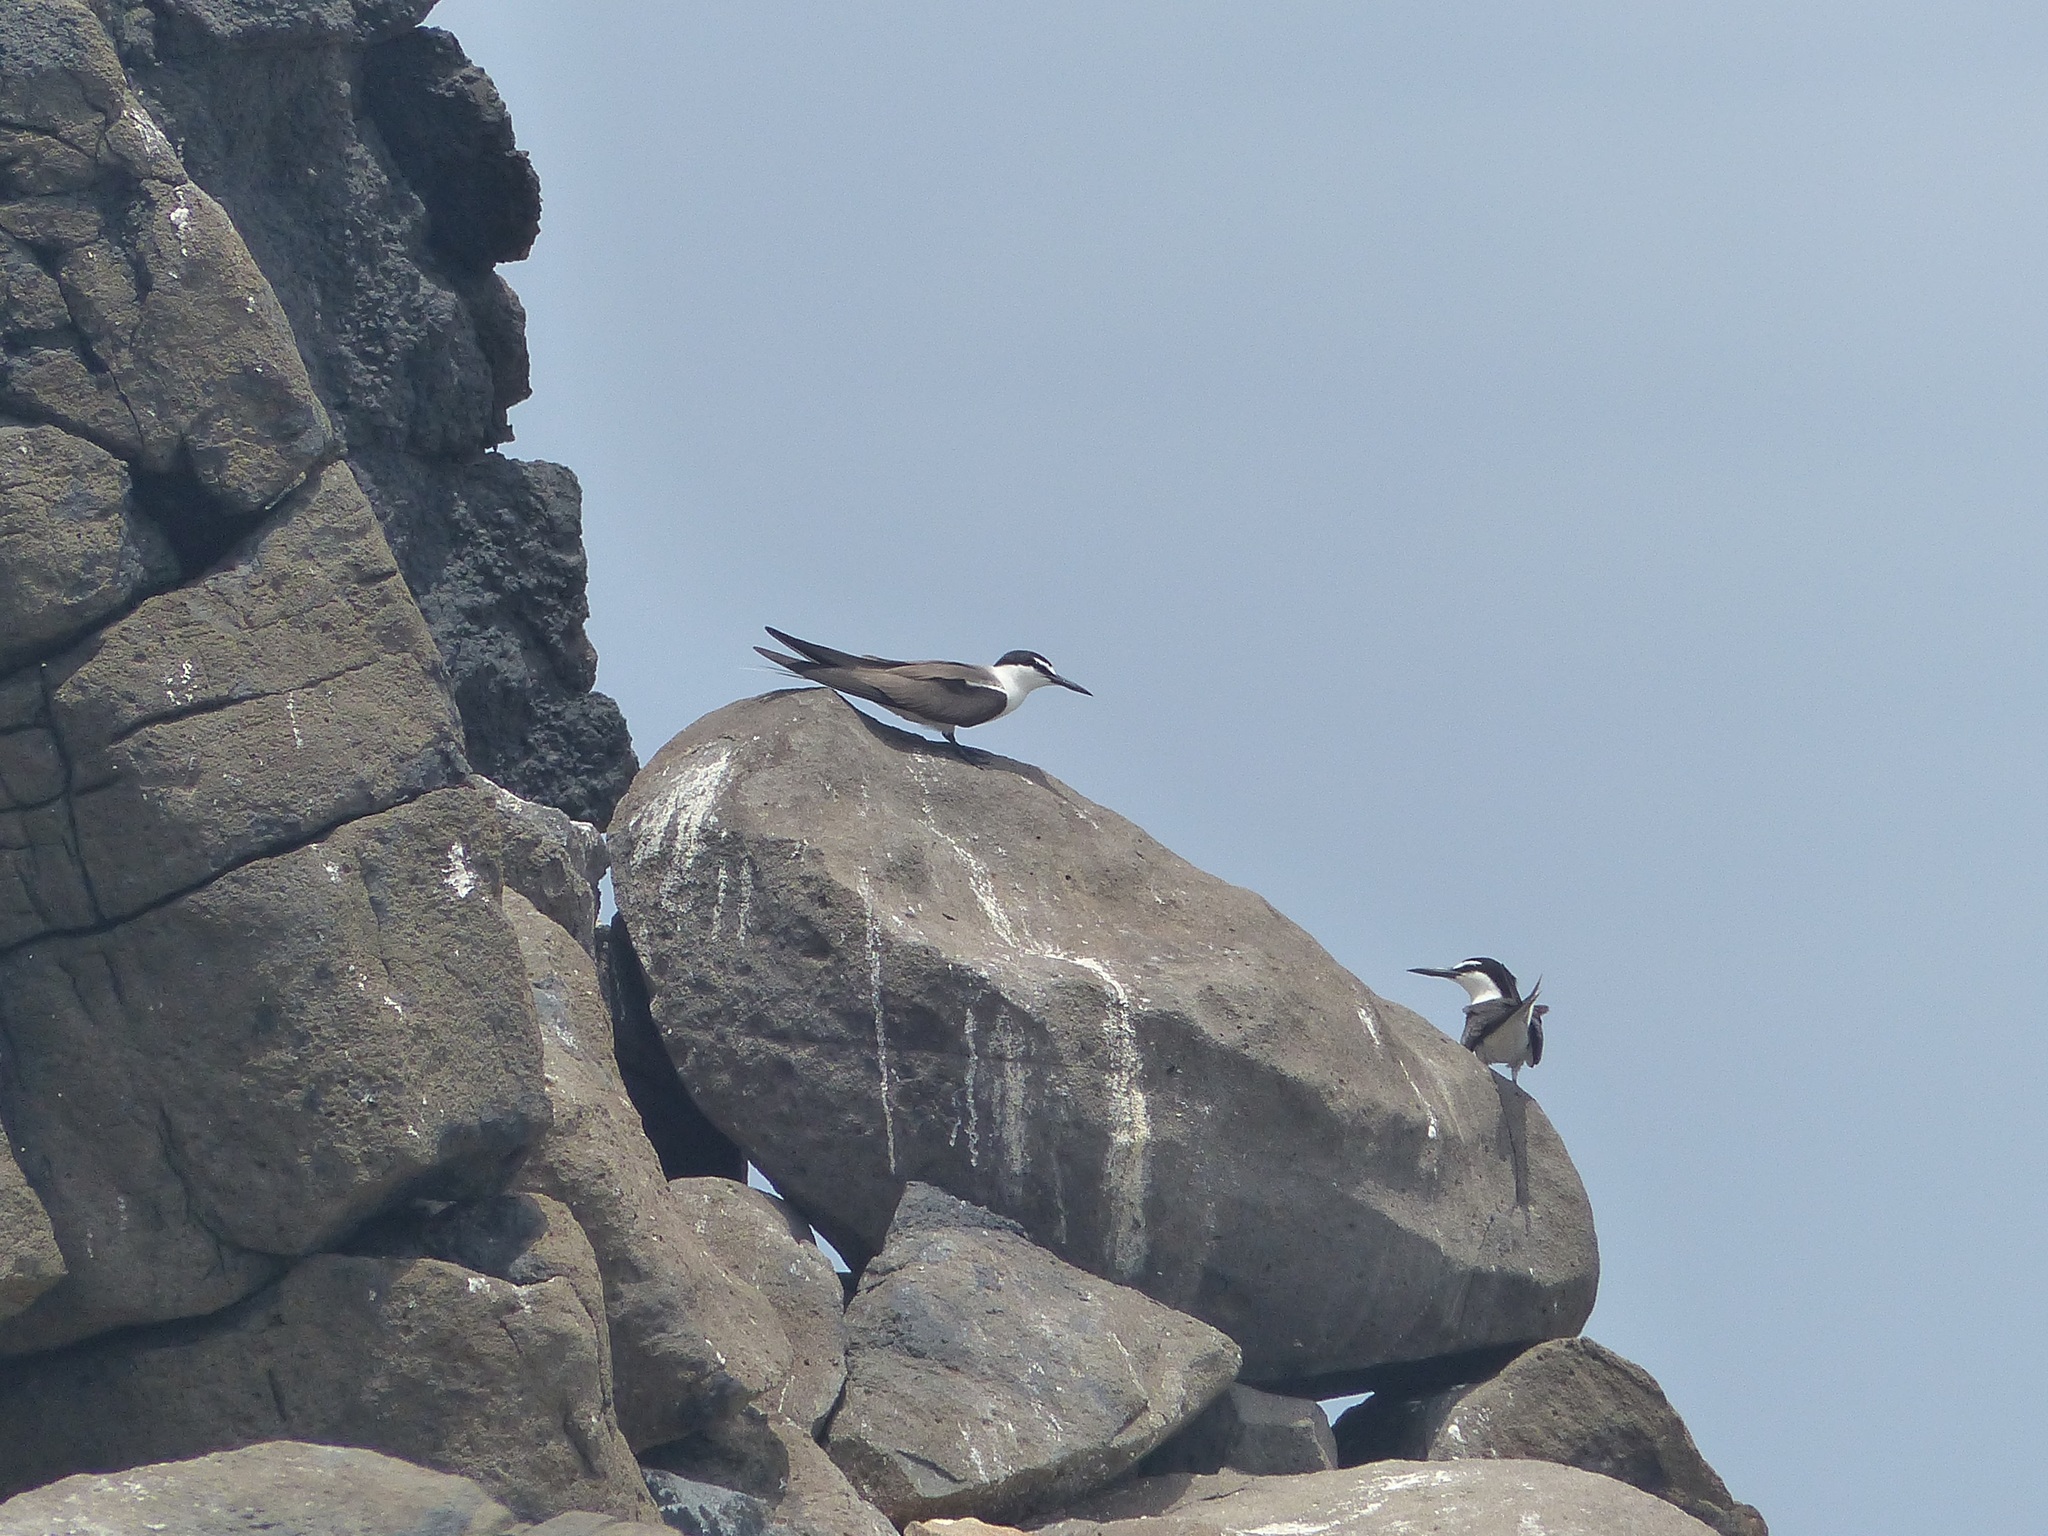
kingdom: Animalia
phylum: Chordata
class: Aves
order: Charadriiformes
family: Laridae
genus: Onychoprion
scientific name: Onychoprion anaethetus
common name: Bridled tern
